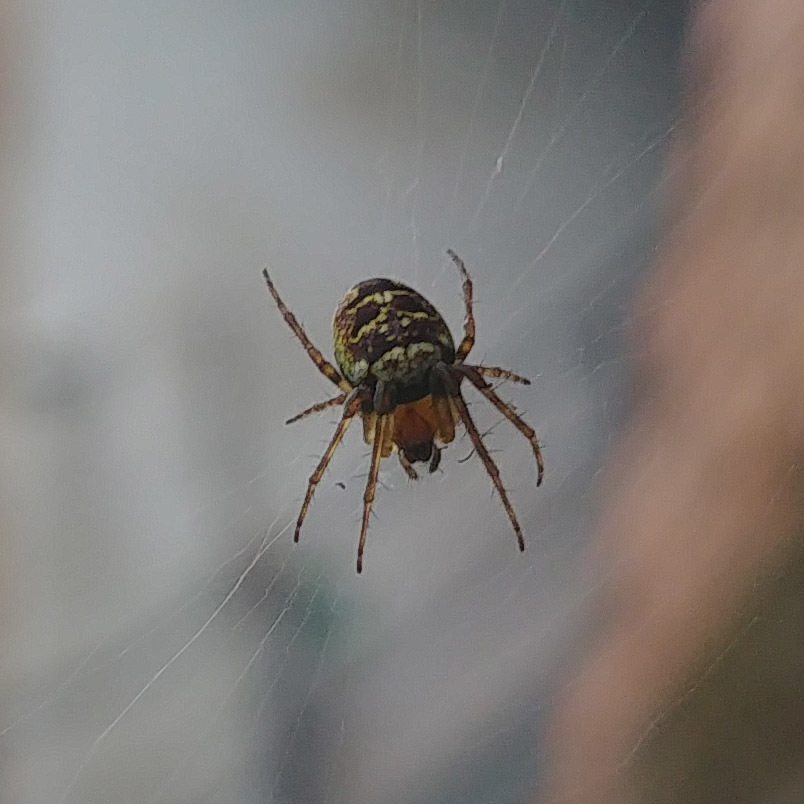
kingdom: Animalia
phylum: Arthropoda
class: Arachnida
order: Araneae
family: Araneidae
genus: Zilla
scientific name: Zilla diodia
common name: Zilla diodia
